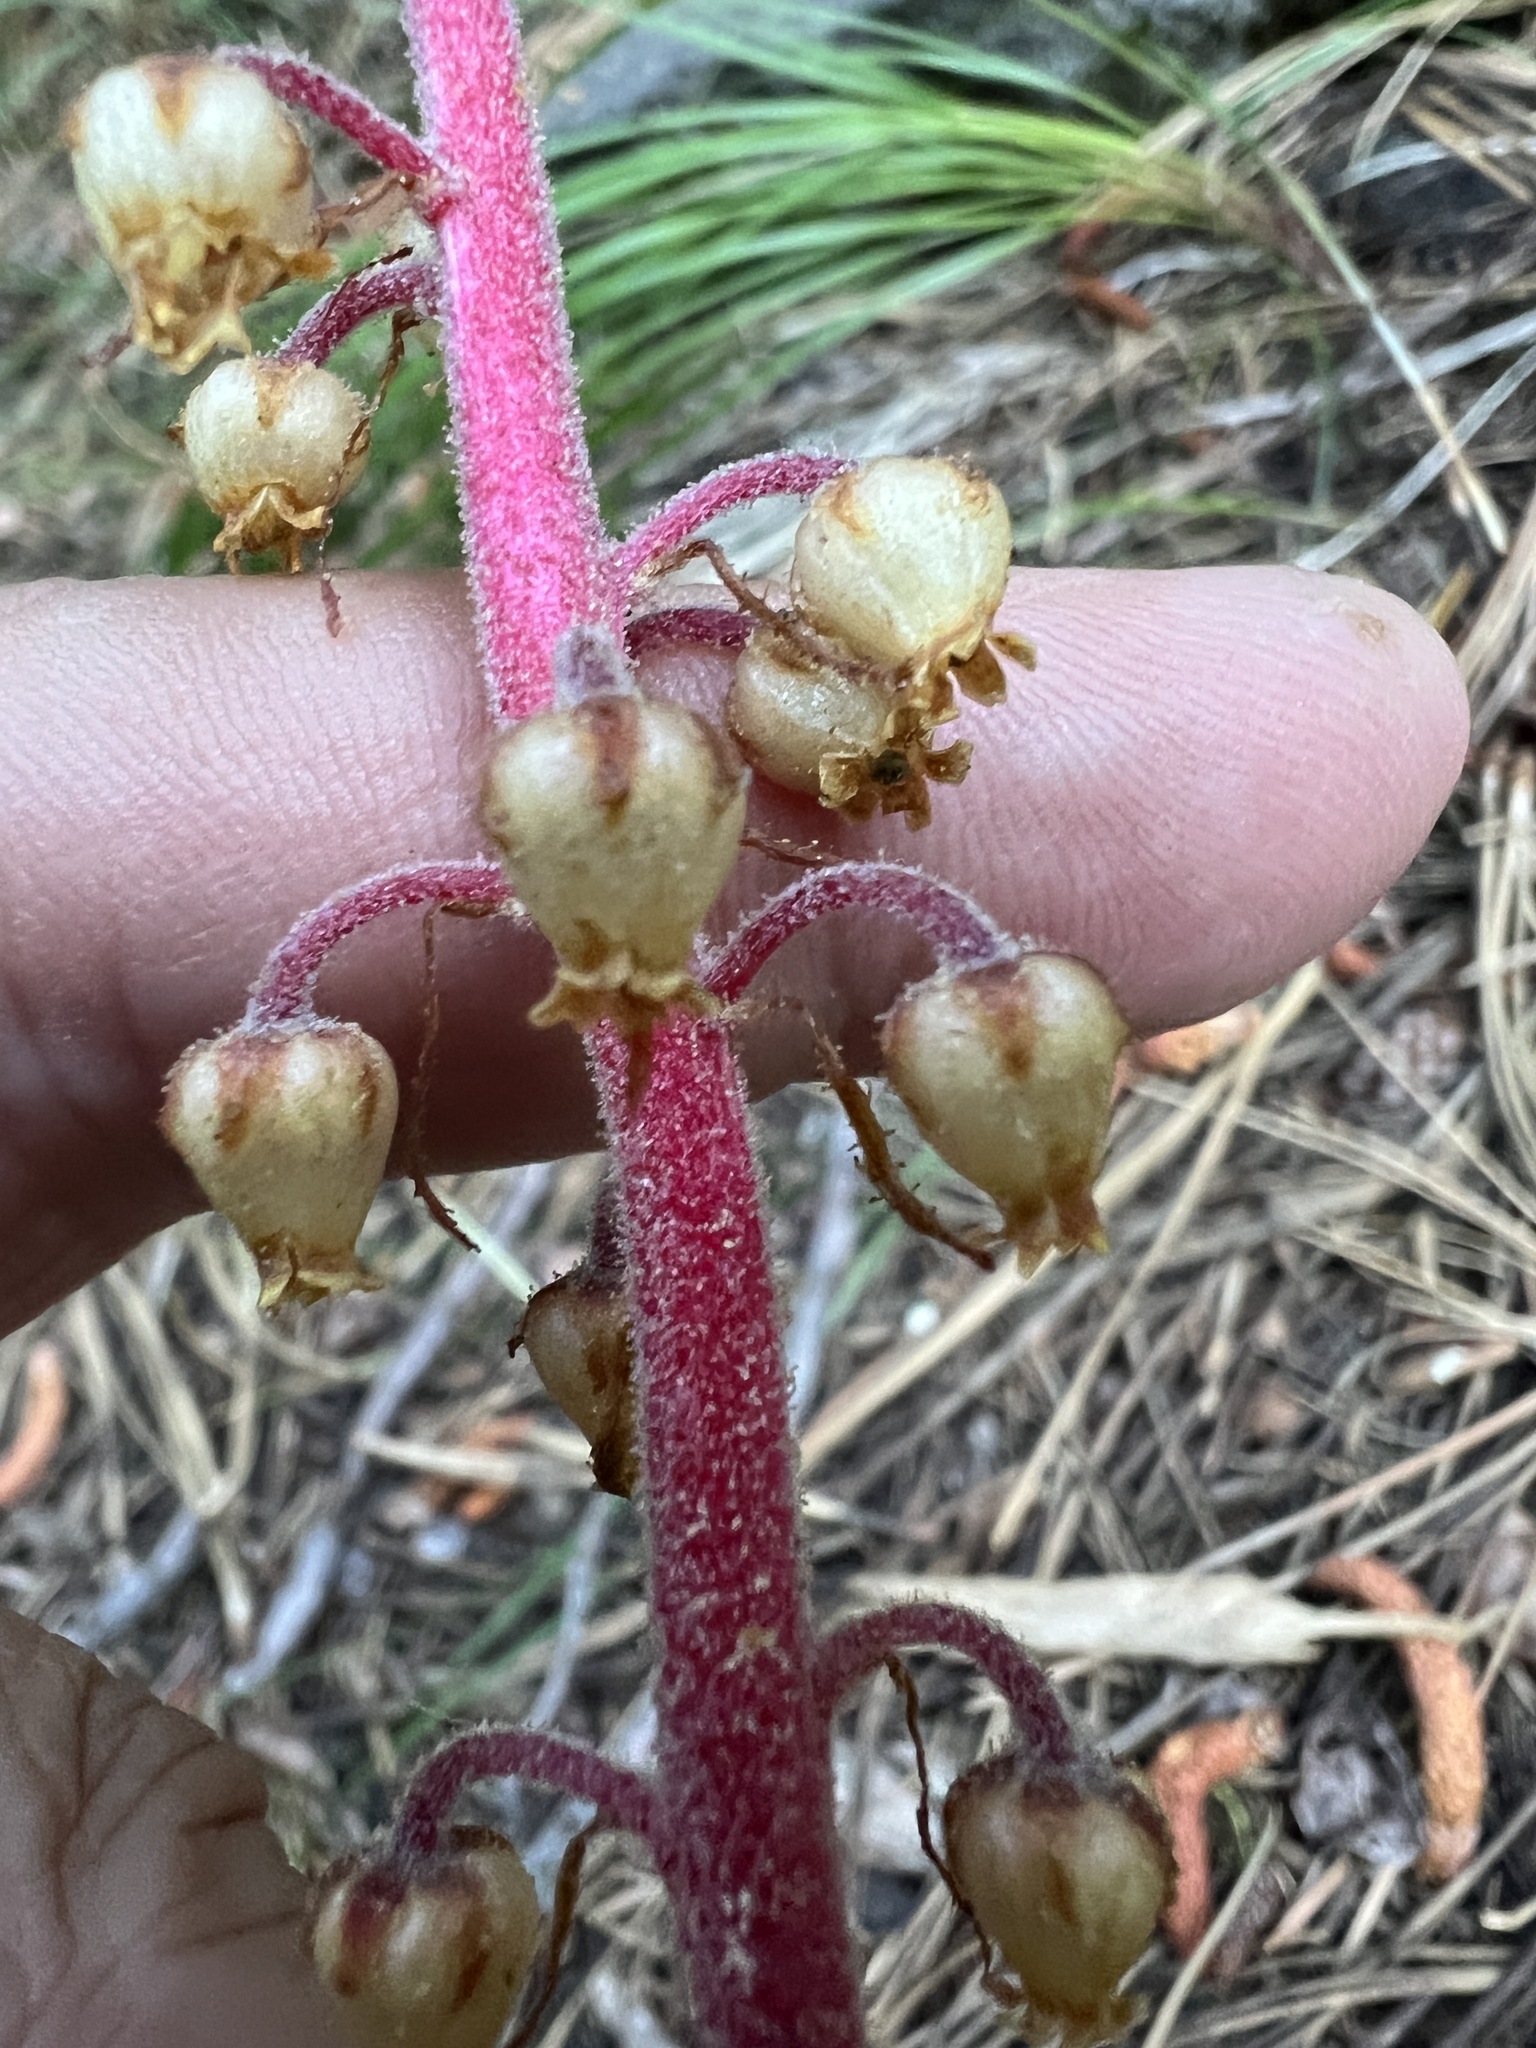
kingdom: Plantae
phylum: Tracheophyta
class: Magnoliopsida
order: Ericales
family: Ericaceae
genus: Pterospora
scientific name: Pterospora andromedea
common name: Giant bird's-nest
